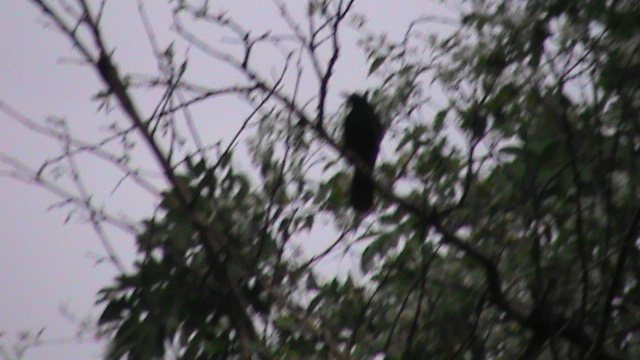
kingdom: Animalia
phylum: Chordata
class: Aves
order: Passeriformes
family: Muscicapidae
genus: Myophonus
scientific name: Myophonus horsfieldii
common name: Malabar whistling-thrush
